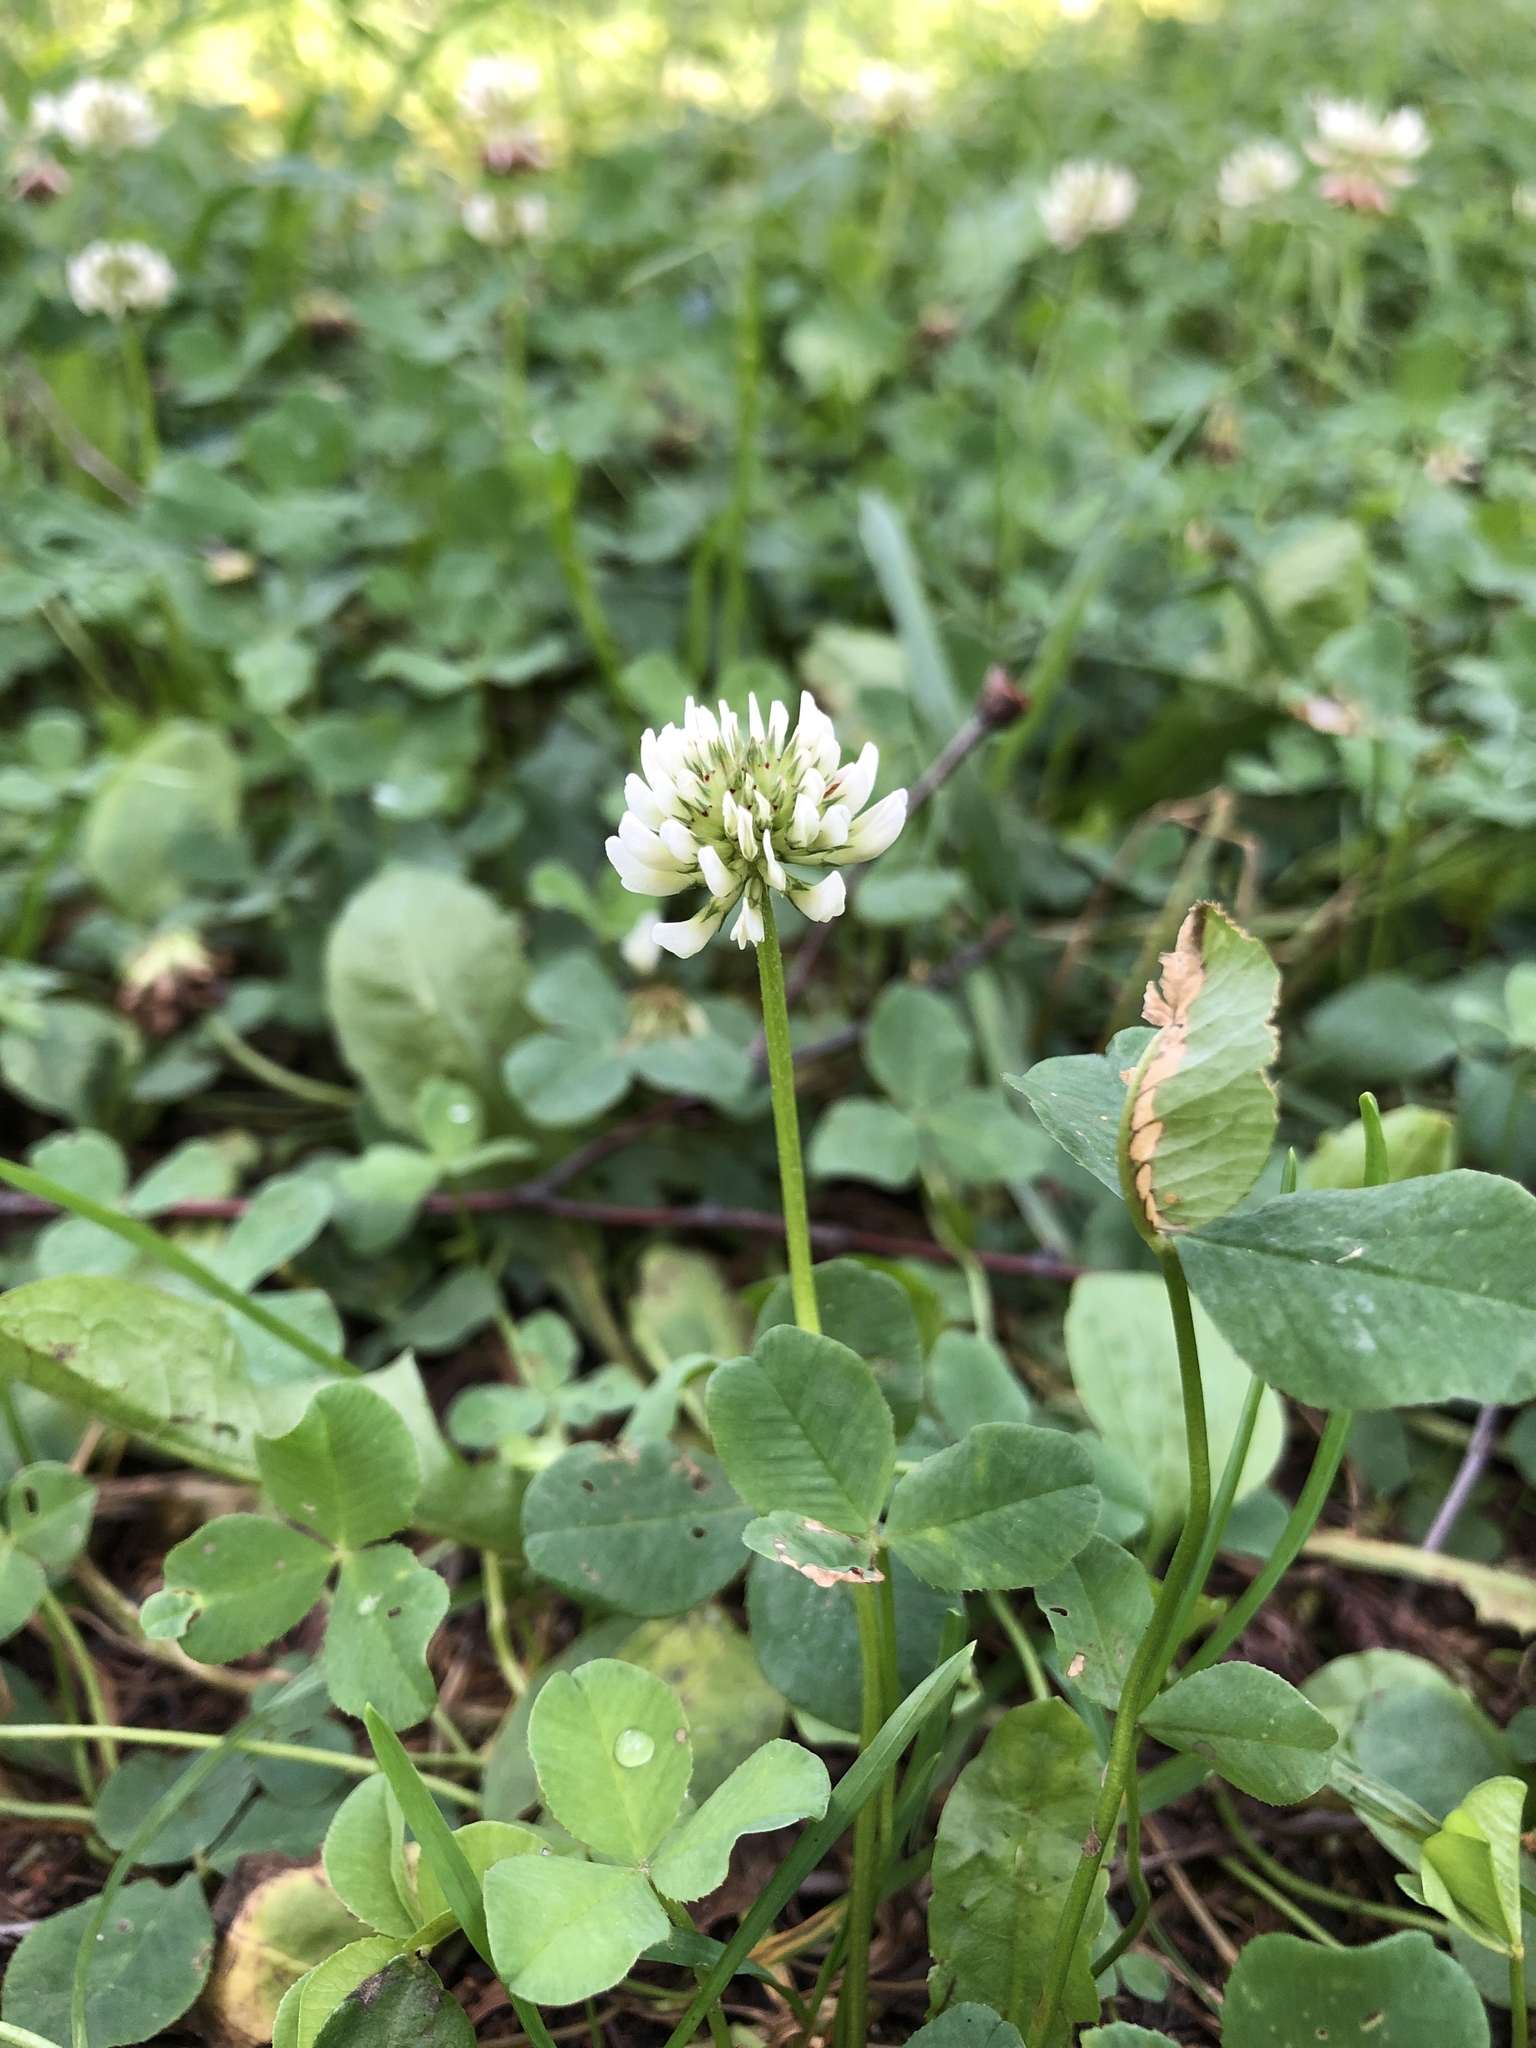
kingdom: Plantae
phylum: Tracheophyta
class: Magnoliopsida
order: Fabales
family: Fabaceae
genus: Trifolium
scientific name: Trifolium repens
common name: White clover
